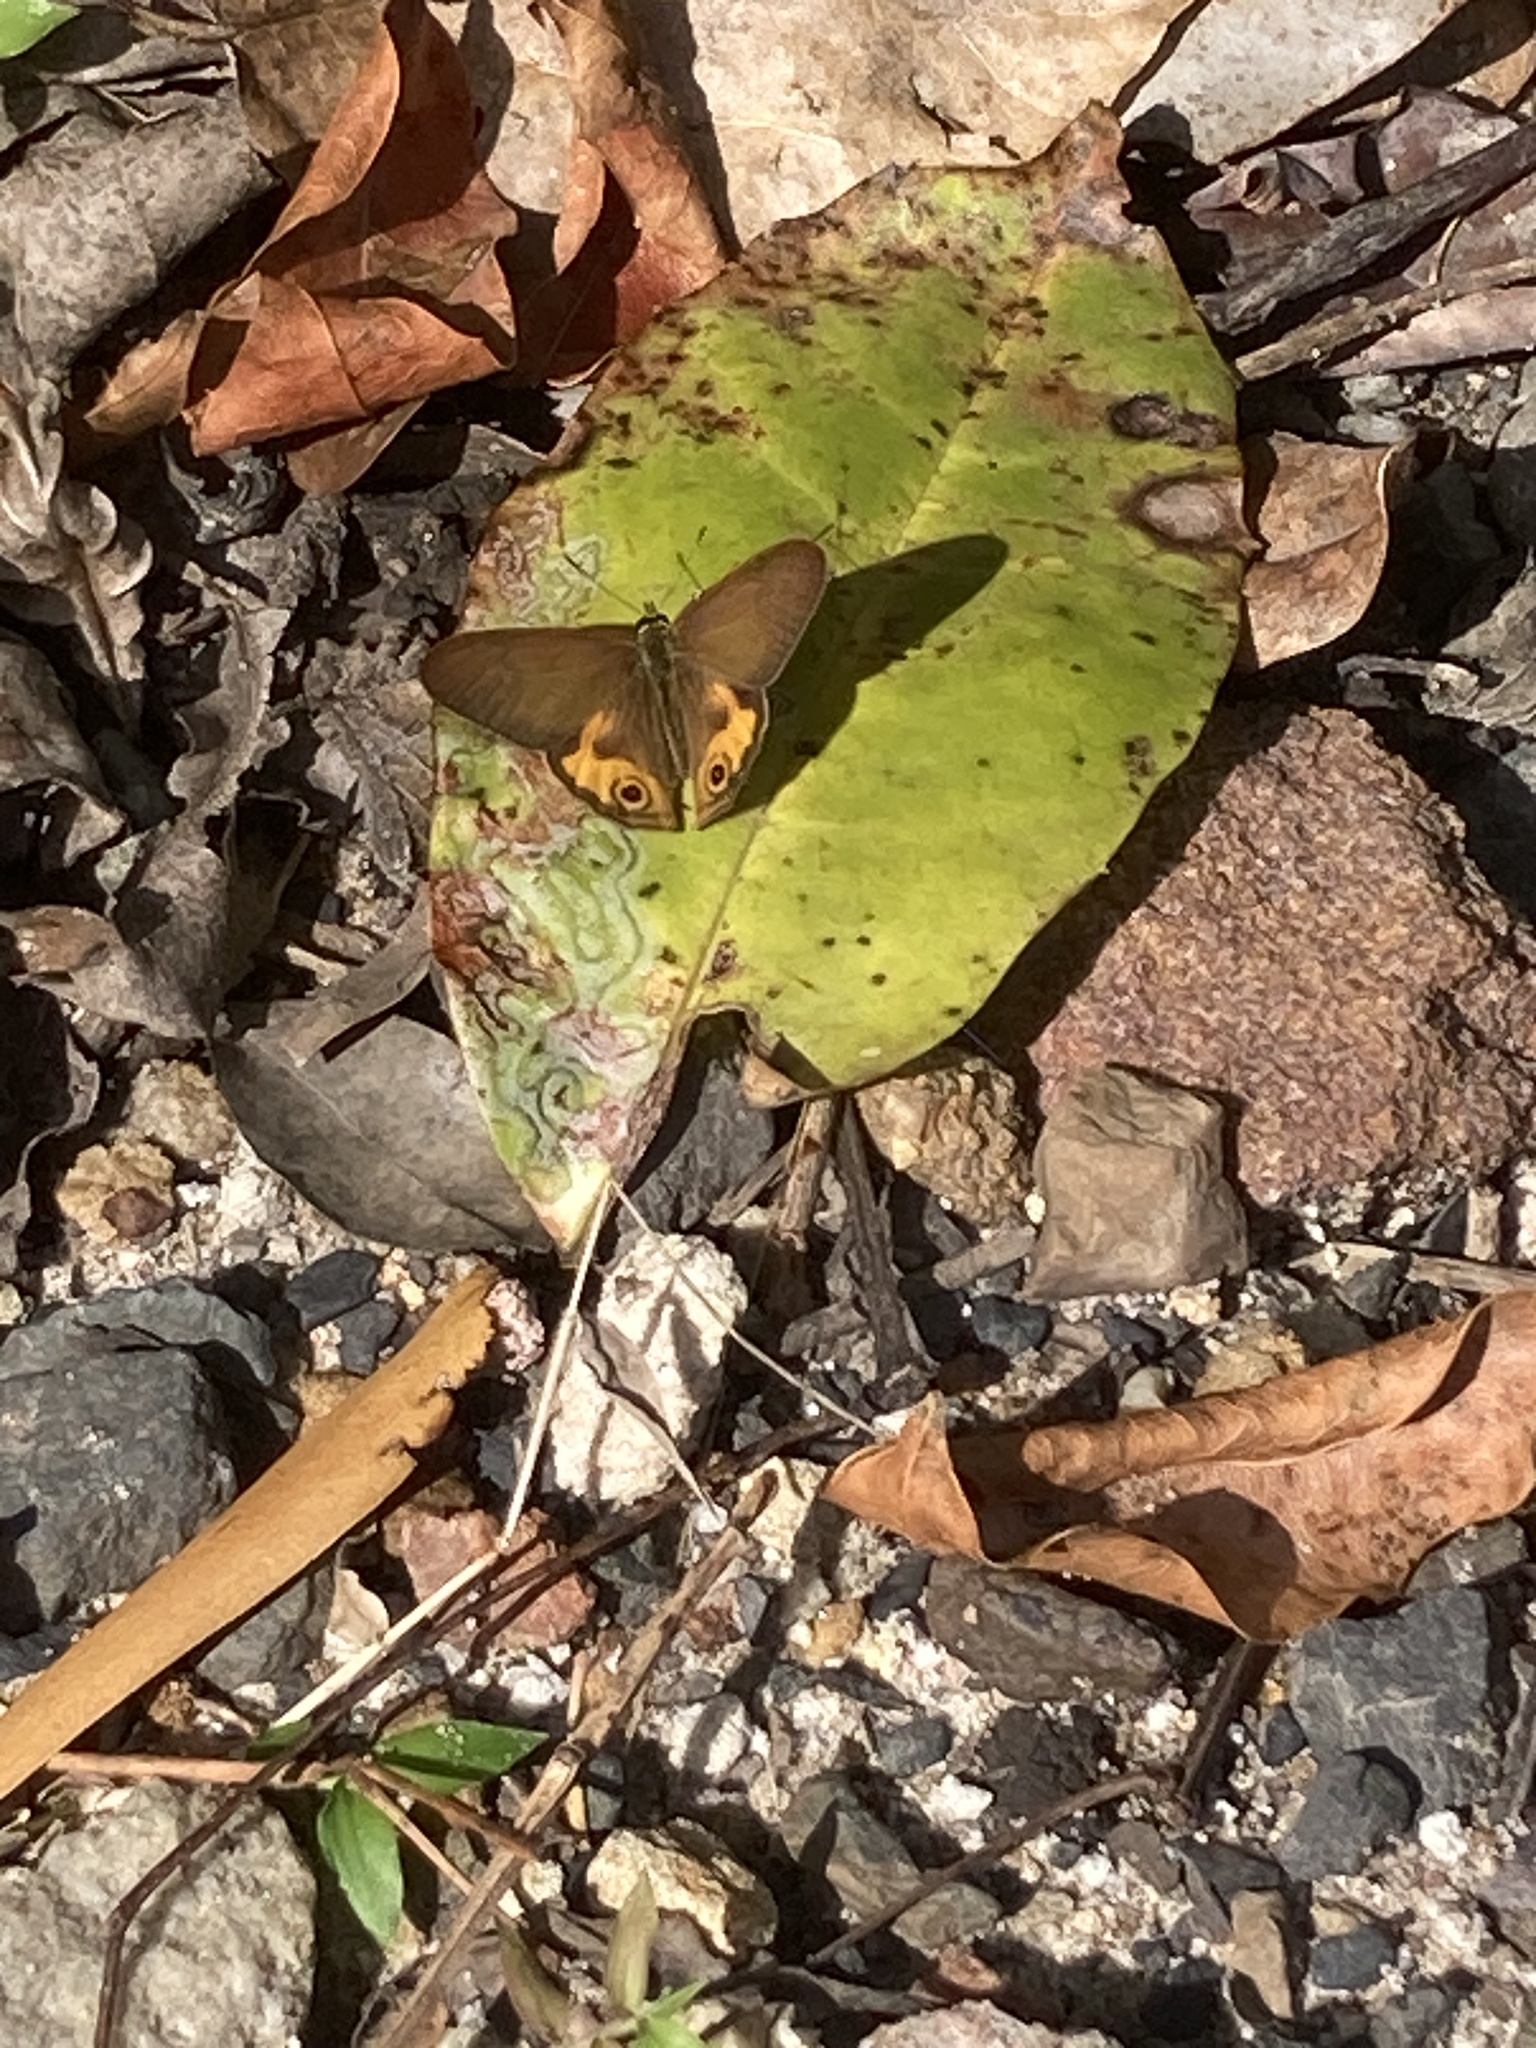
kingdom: Animalia
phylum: Arthropoda
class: Insecta
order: Lepidoptera
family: Nymphalidae
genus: Hypocysta
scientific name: Hypocysta metirius
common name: Brown ringlet
